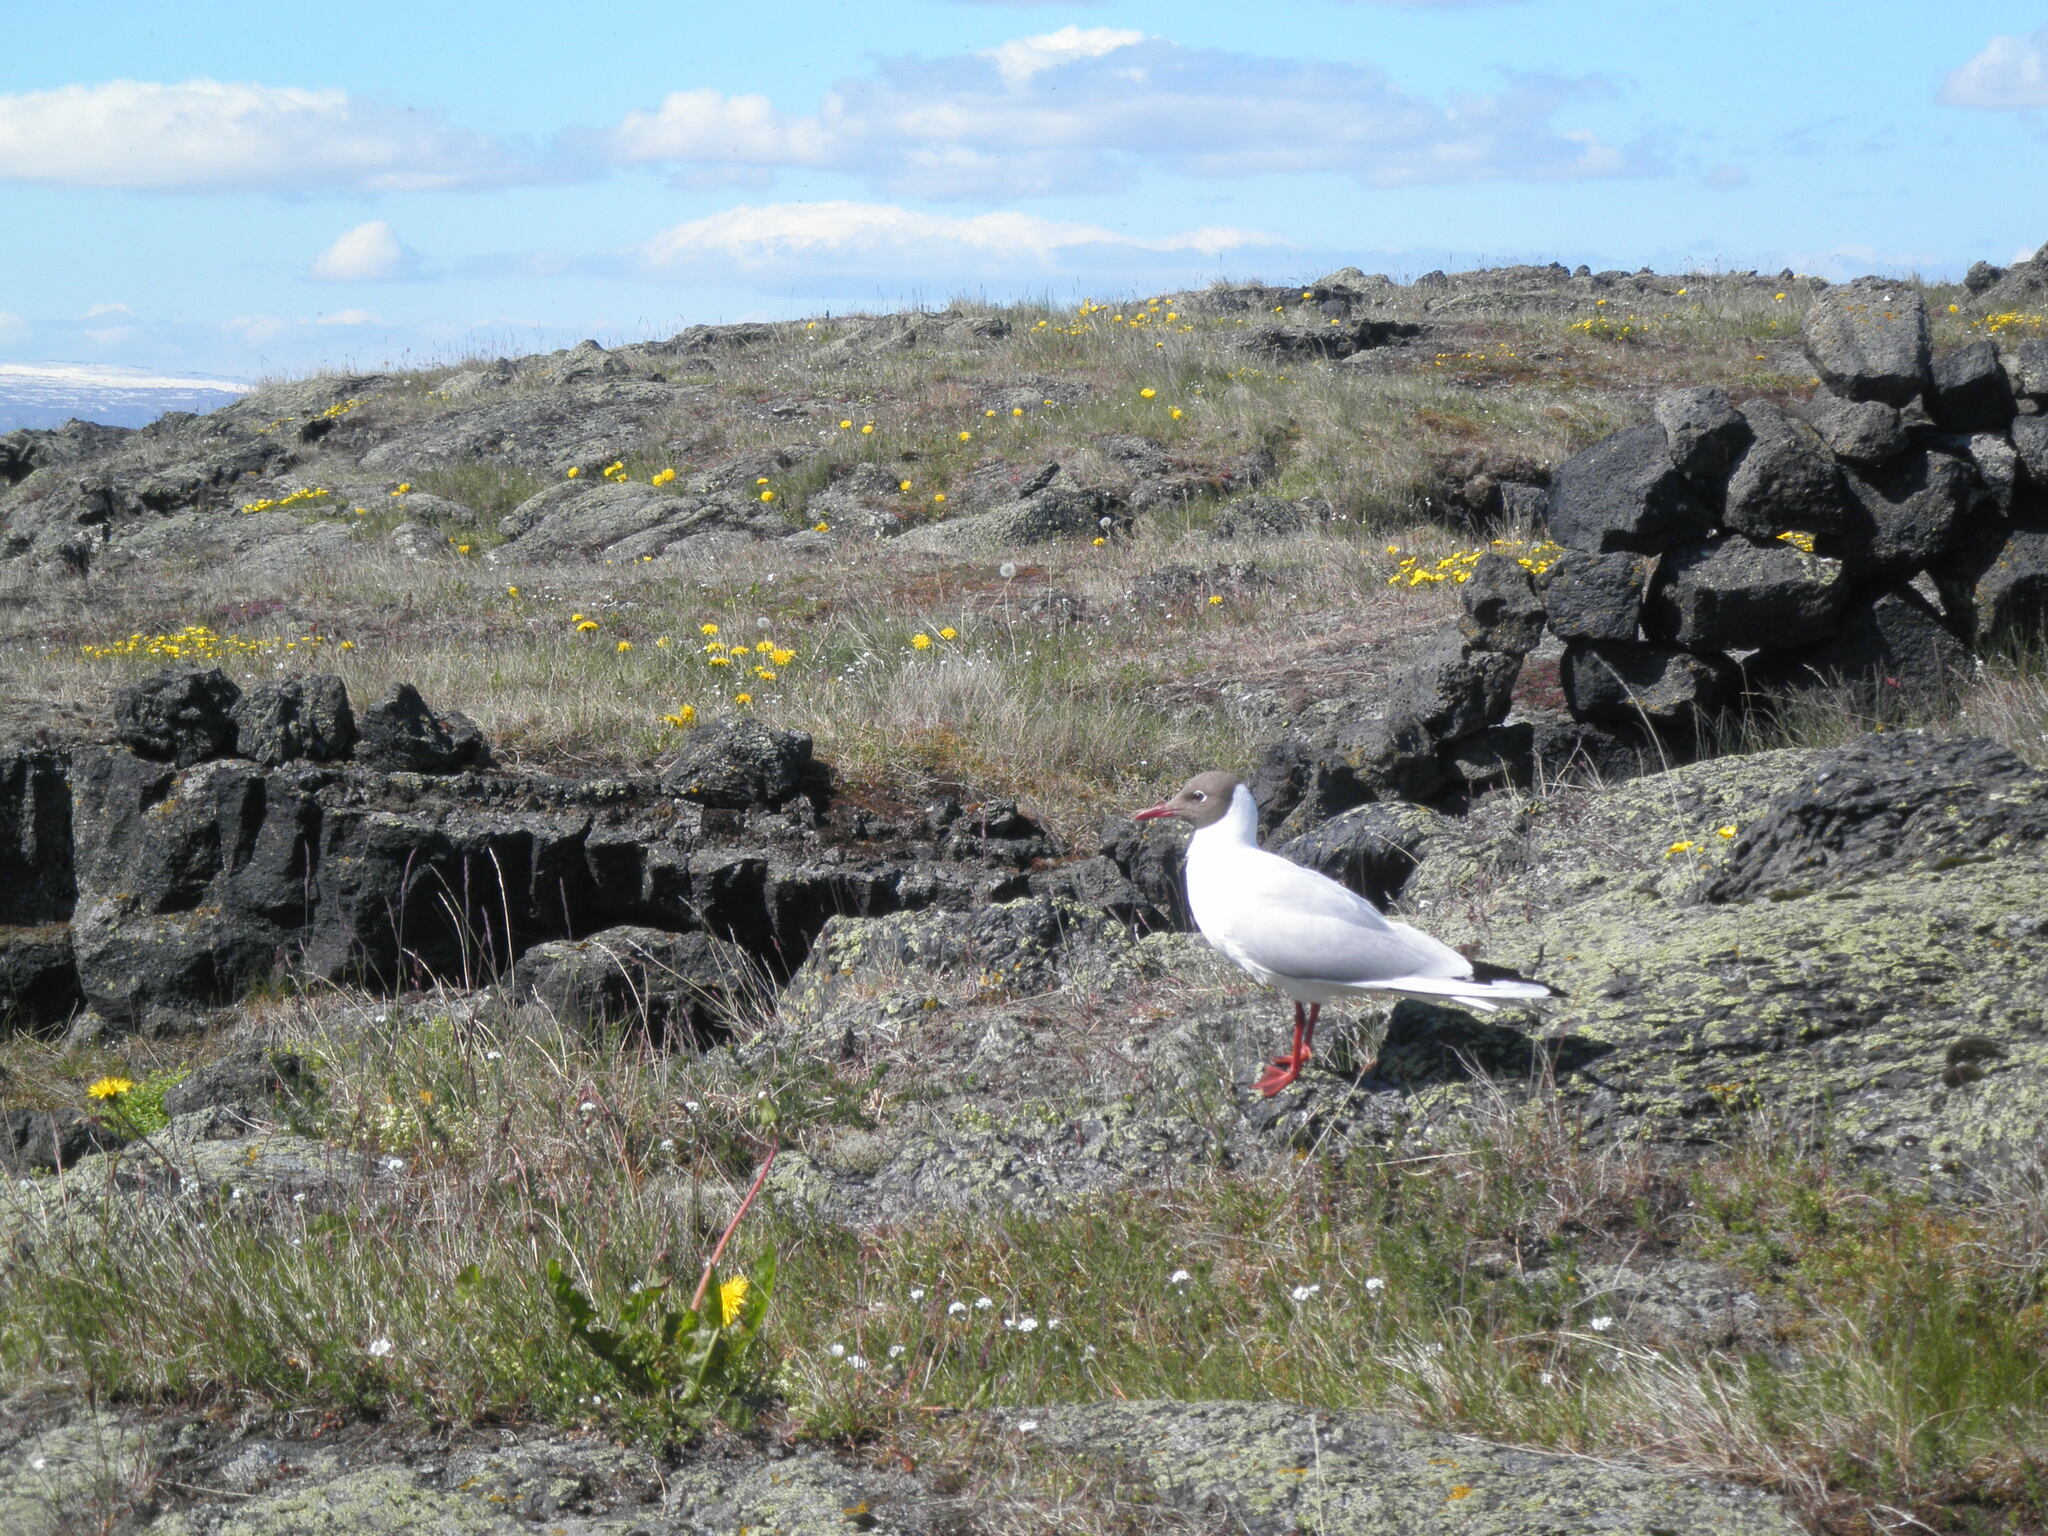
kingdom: Animalia
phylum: Chordata
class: Aves
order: Charadriiformes
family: Laridae
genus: Chroicocephalus
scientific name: Chroicocephalus ridibundus
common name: Black-headed gull
